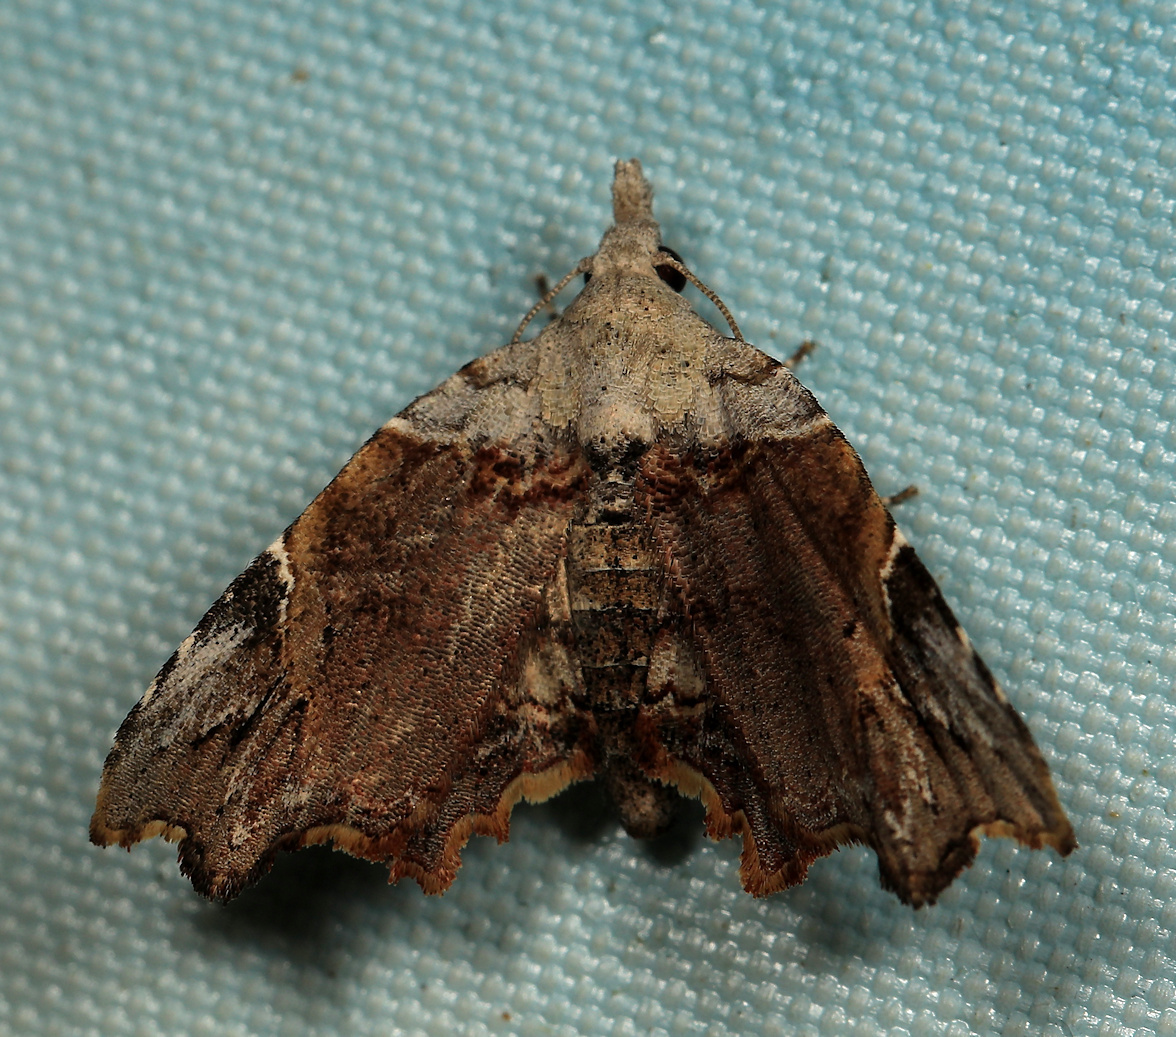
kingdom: Animalia
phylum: Arthropoda
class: Insecta
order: Lepidoptera
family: Noctuidae
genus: Oediblemma
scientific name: Oediblemma trogoptera
